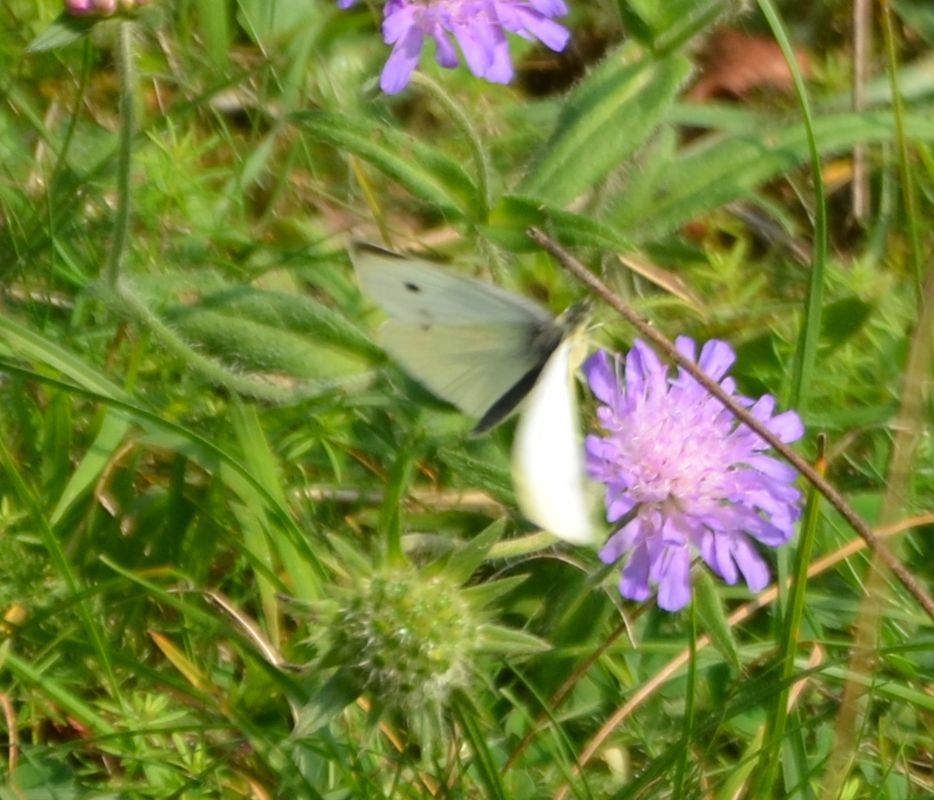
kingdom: Animalia
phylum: Arthropoda
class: Insecta
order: Lepidoptera
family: Pieridae
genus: Pieris
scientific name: Pieris rapae
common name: Small white
